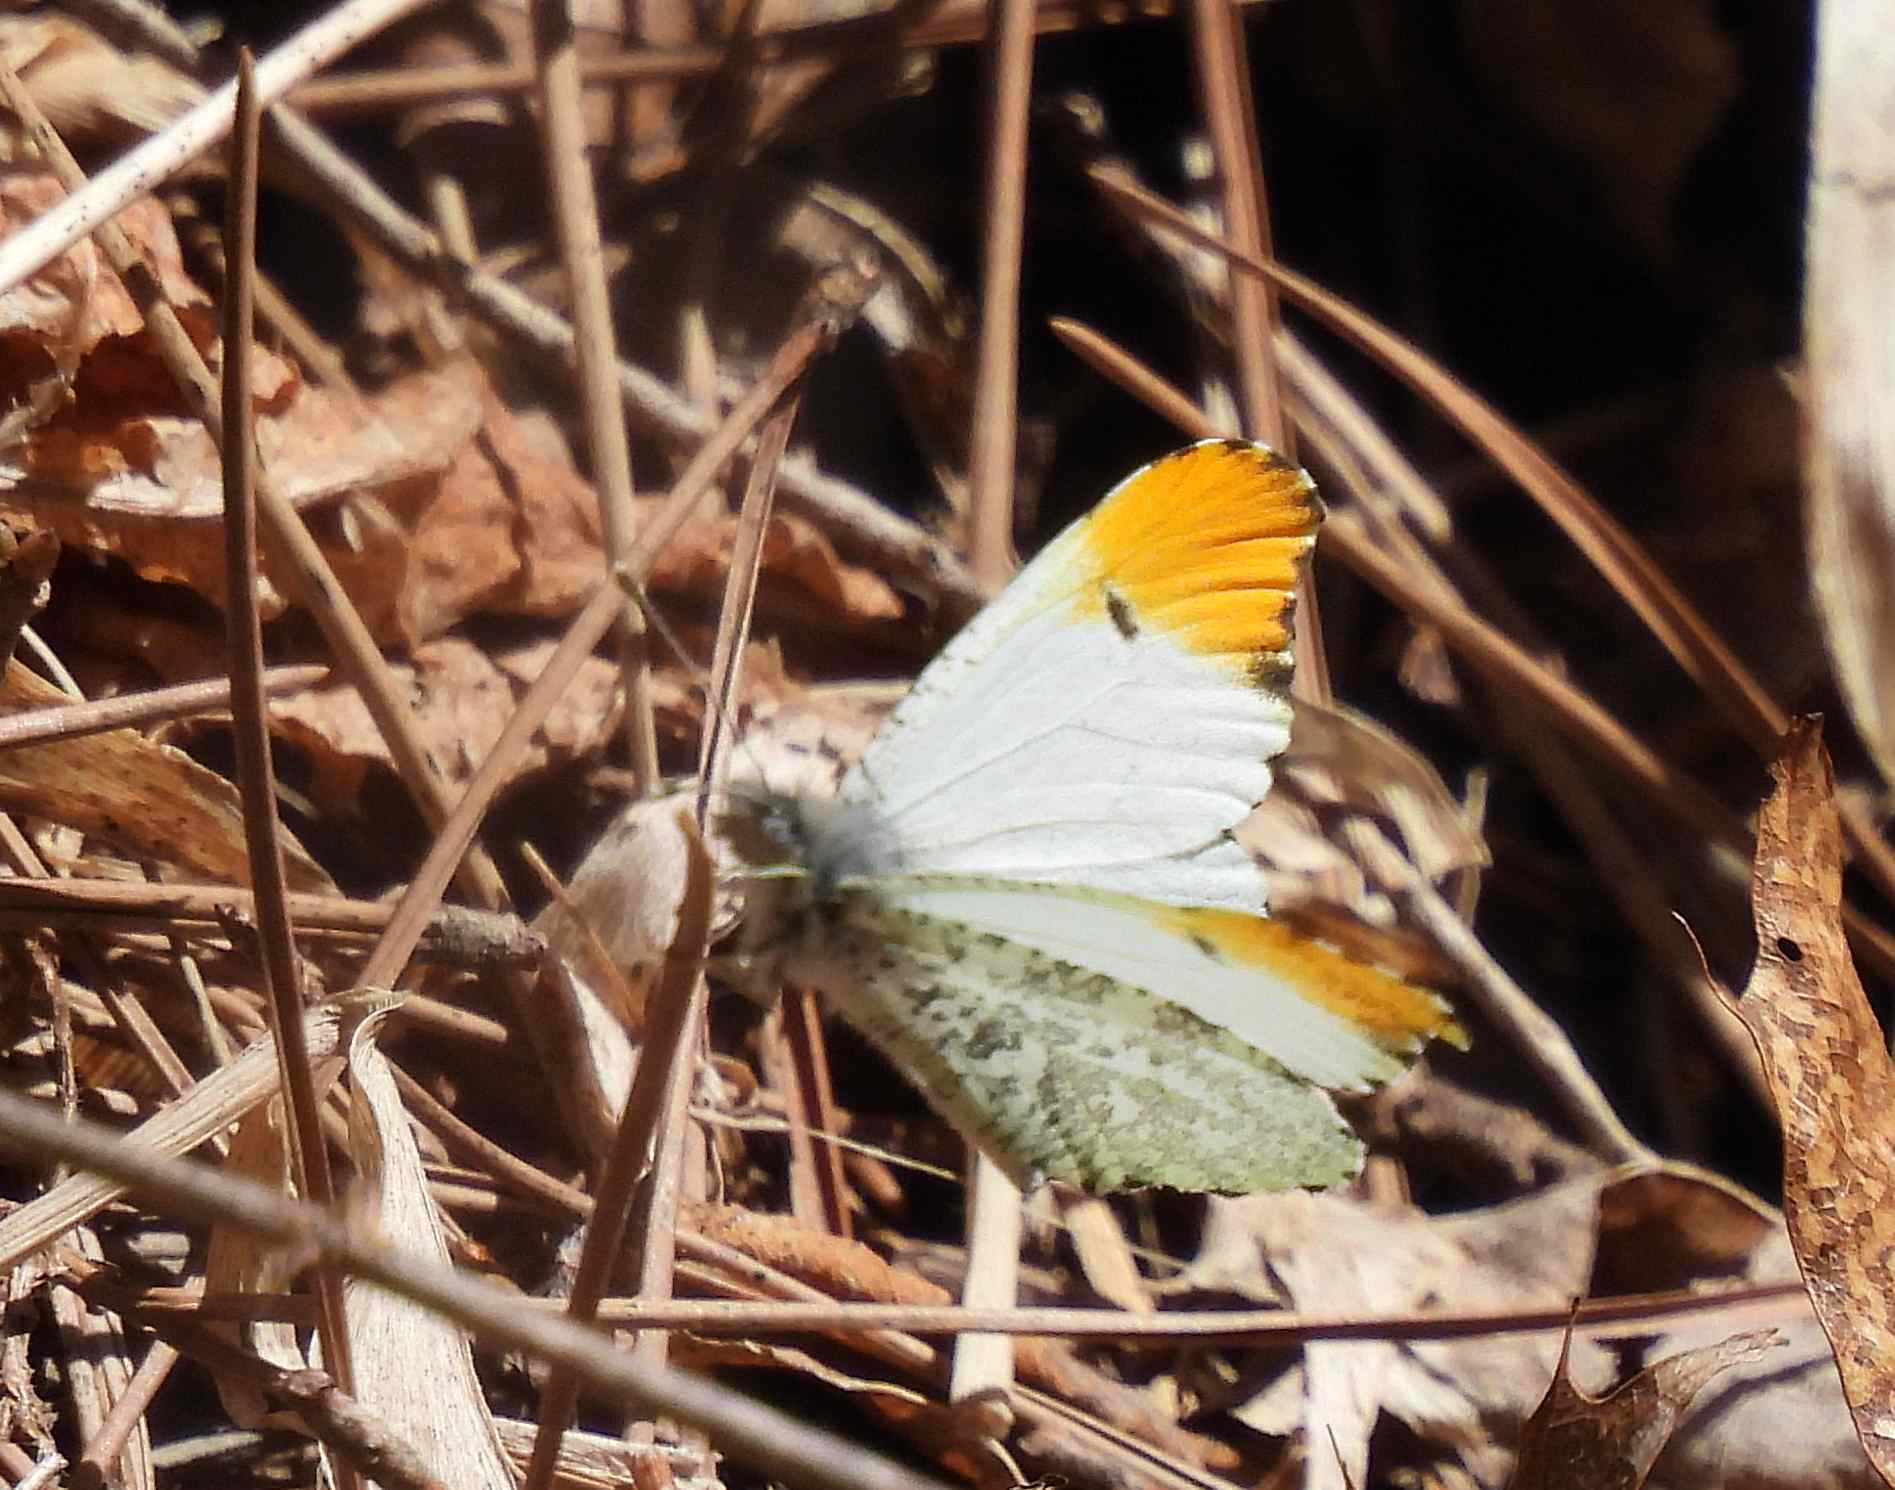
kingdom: Animalia
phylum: Arthropoda
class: Insecta
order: Lepidoptera
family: Pieridae
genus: Anthocharis
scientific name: Anthocharis midea
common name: Falcate orangetip
